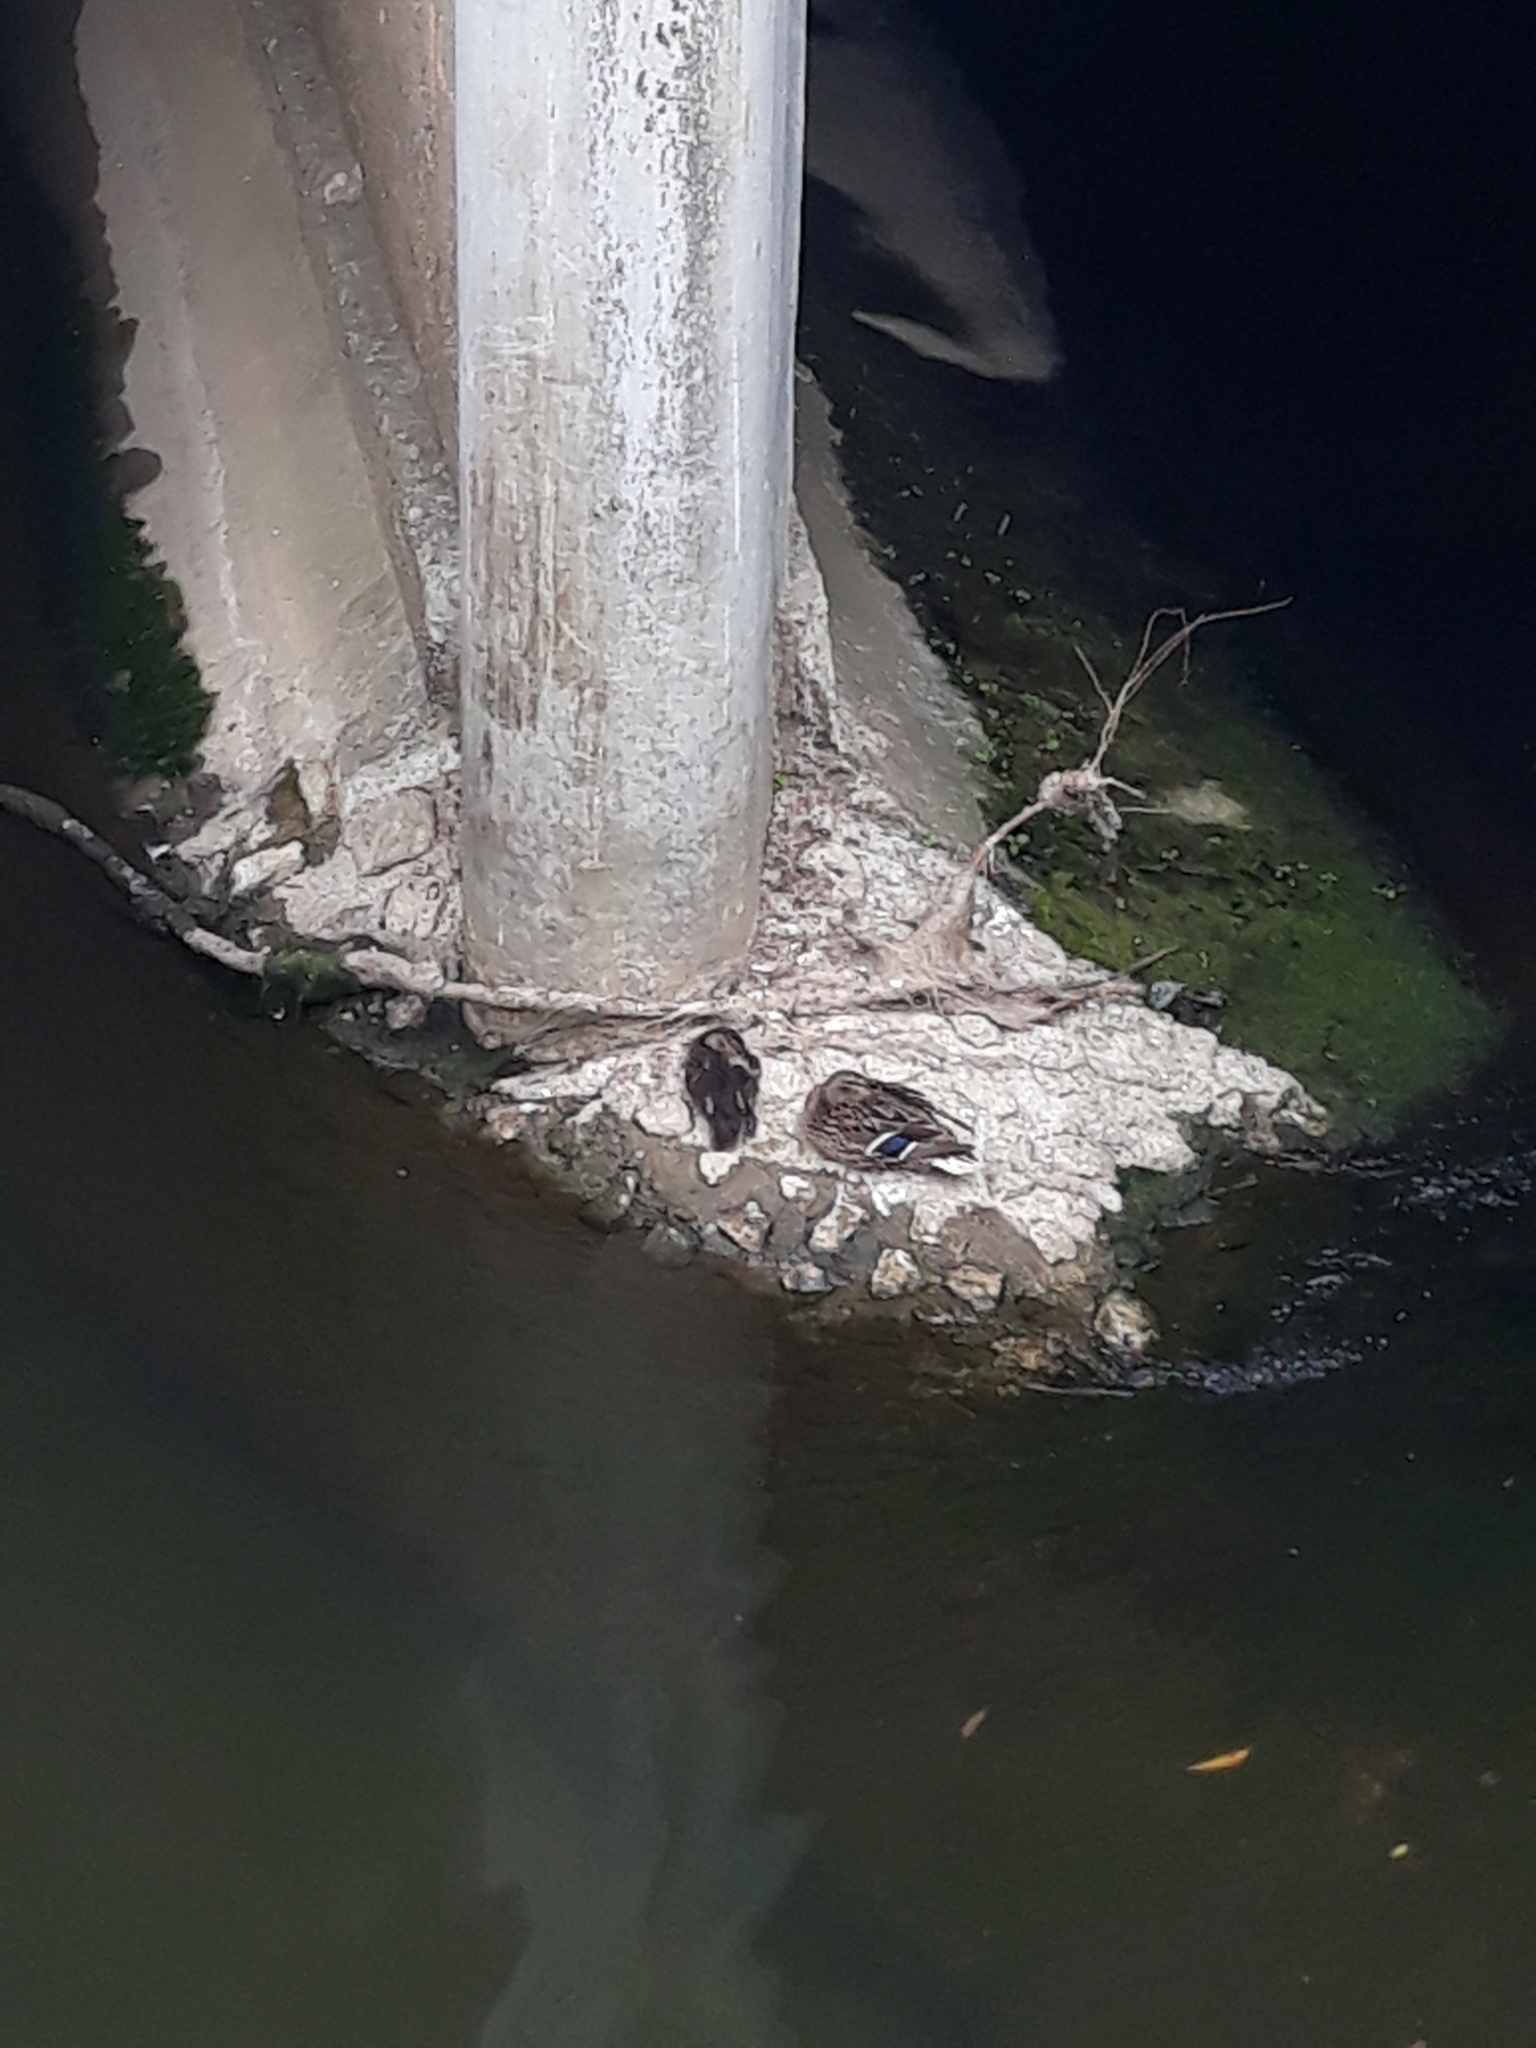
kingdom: Animalia
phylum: Chordata
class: Aves
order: Anseriformes
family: Anatidae
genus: Anas
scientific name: Anas platyrhynchos
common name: Mallard
